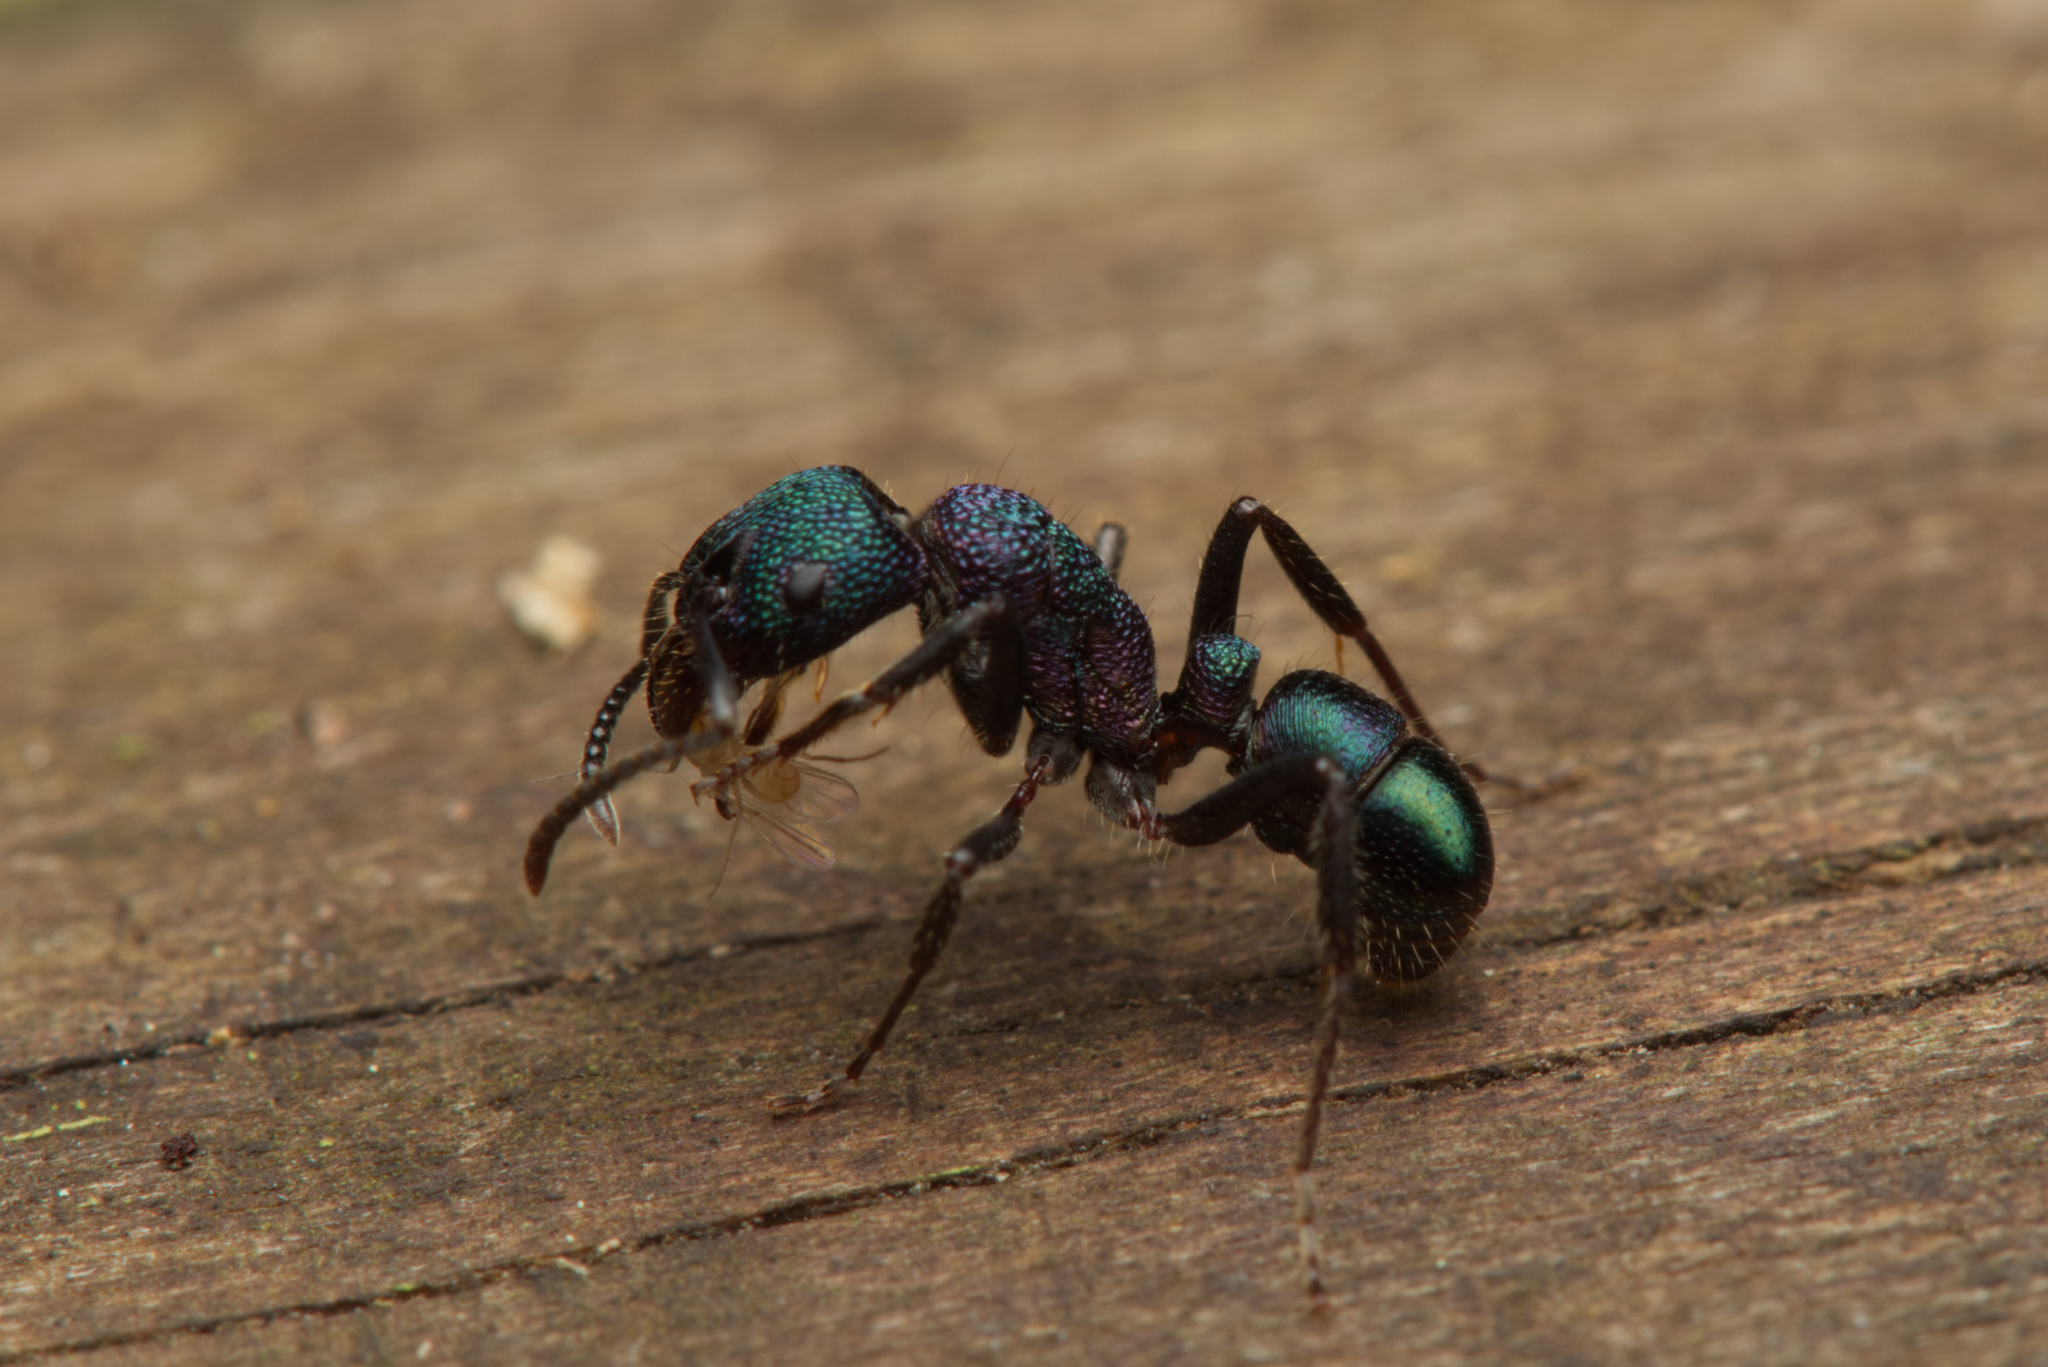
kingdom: Animalia
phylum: Arthropoda
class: Insecta
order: Hymenoptera
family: Formicidae
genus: Rhytidoponera
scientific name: Rhytidoponera metallica
